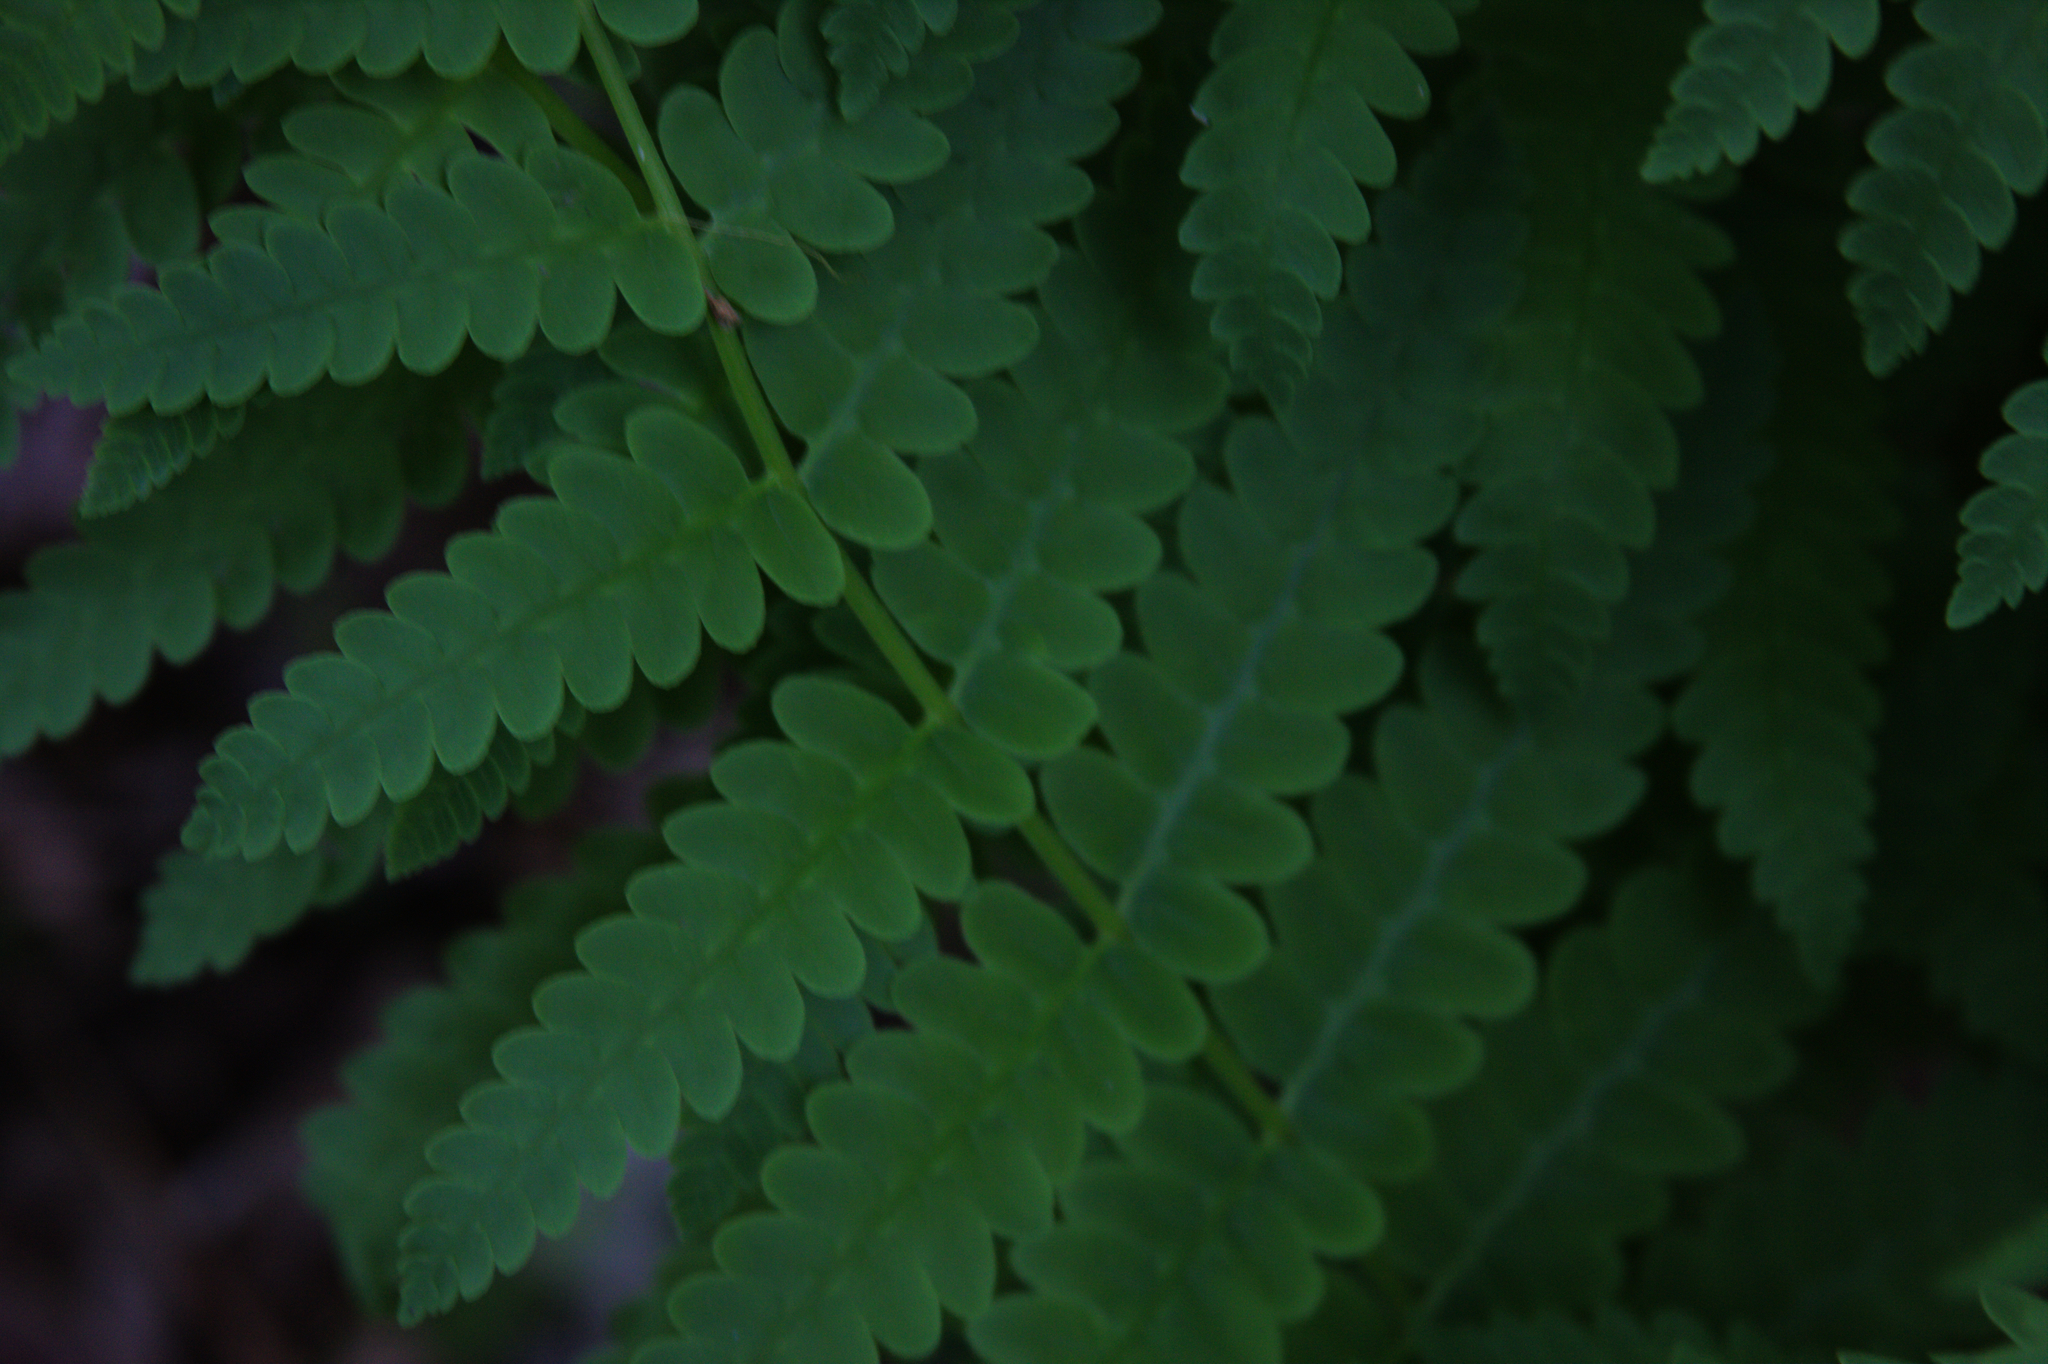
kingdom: Plantae
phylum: Tracheophyta
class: Polypodiopsida
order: Osmundales
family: Osmundaceae
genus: Claytosmunda
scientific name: Claytosmunda claytoniana
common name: Clayton's fern
